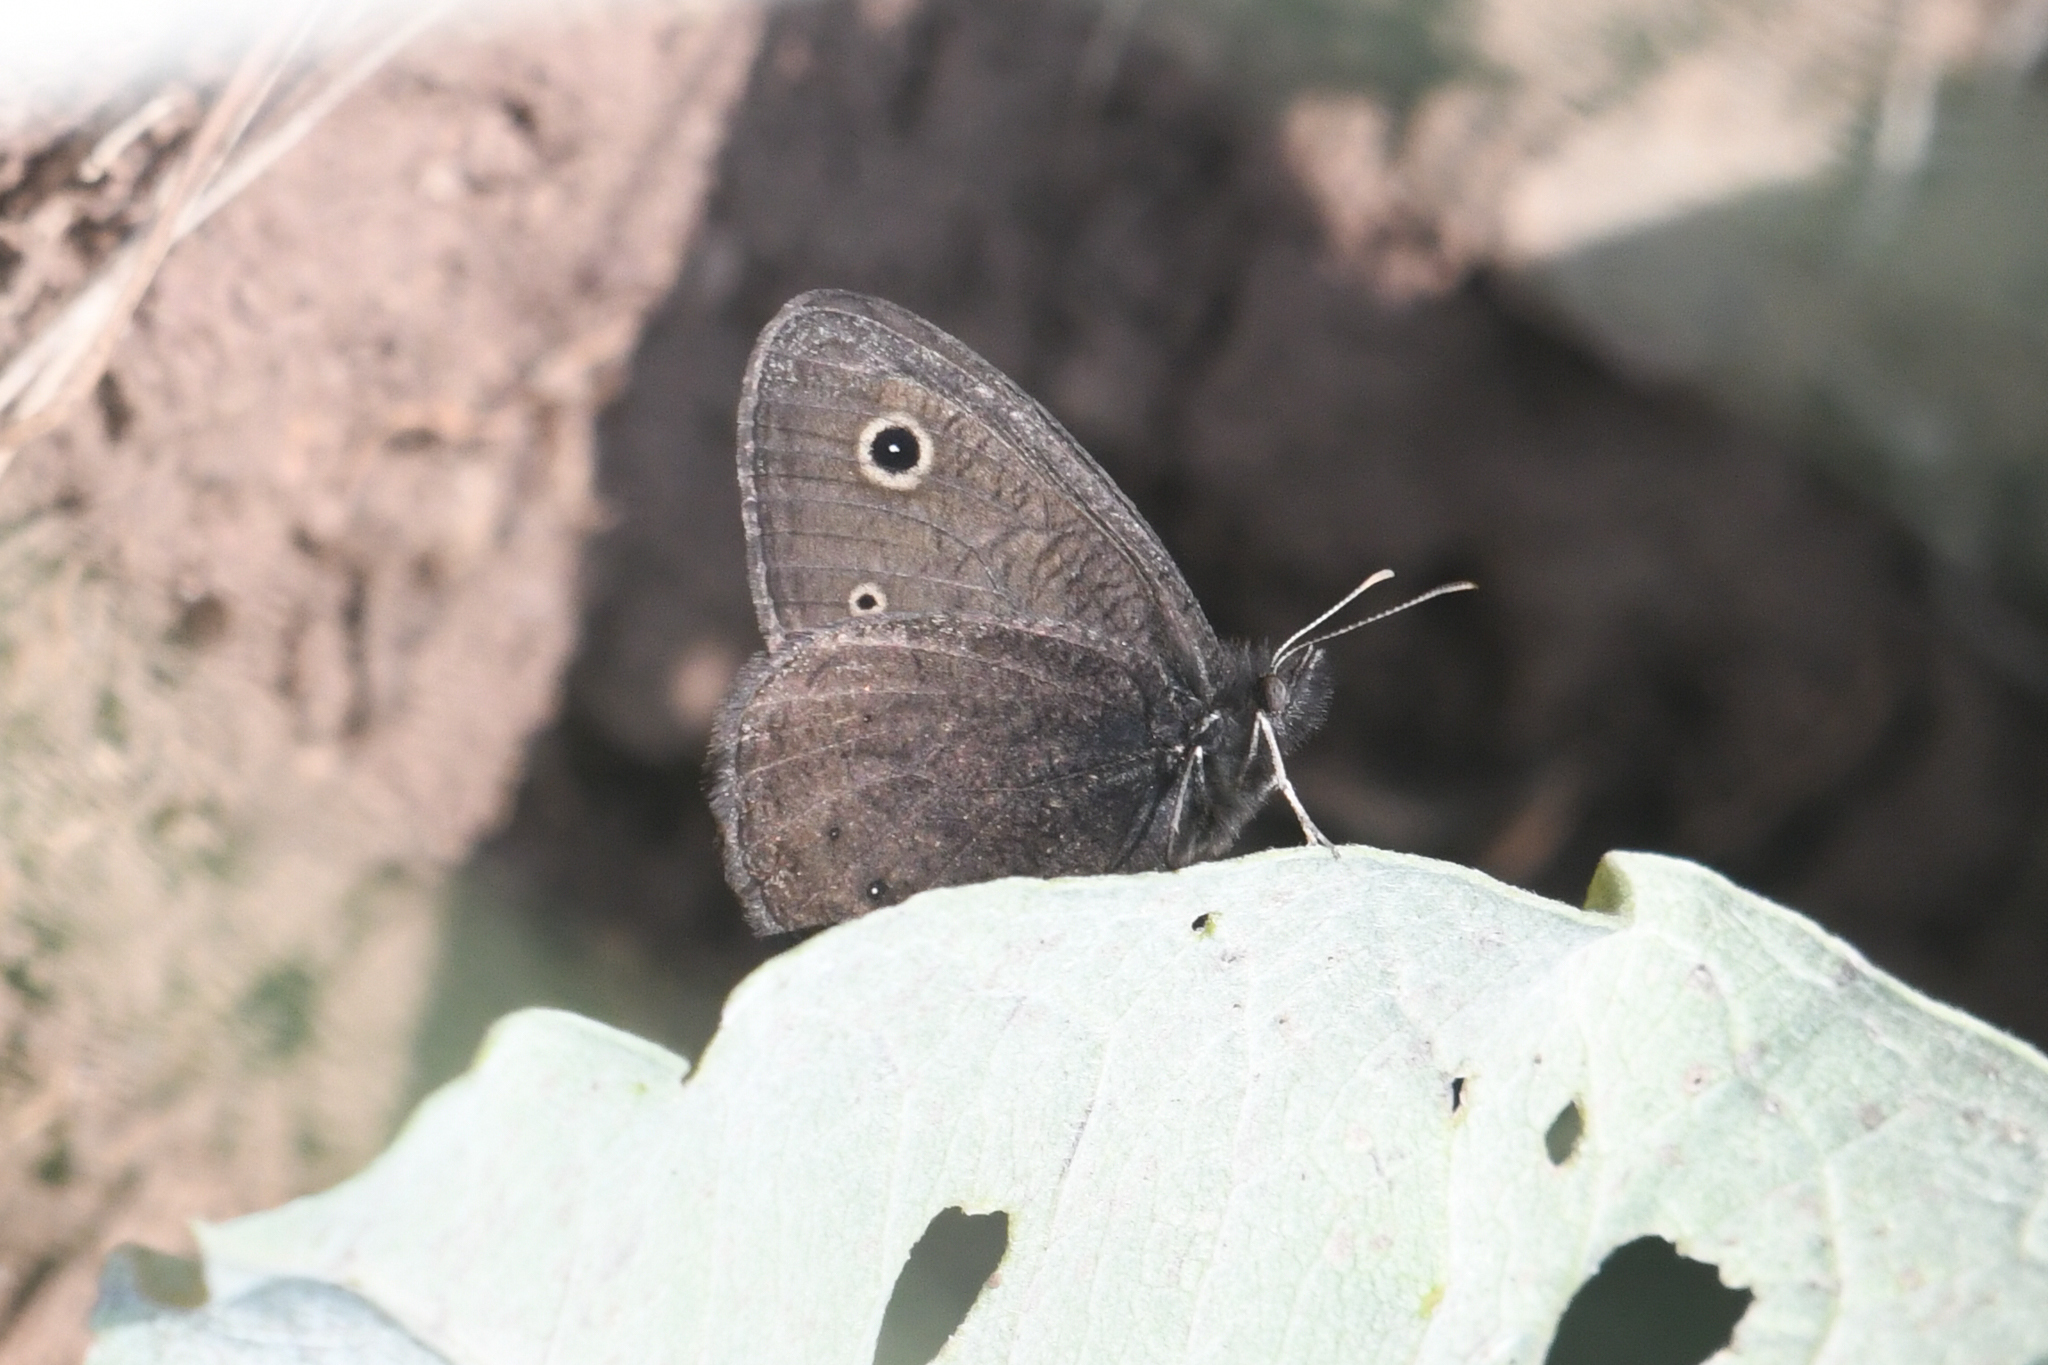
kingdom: Animalia
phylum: Arthropoda
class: Insecta
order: Lepidoptera
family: Nymphalidae
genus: Cercyonis
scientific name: Cercyonis oetus
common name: Small wood-nymph
